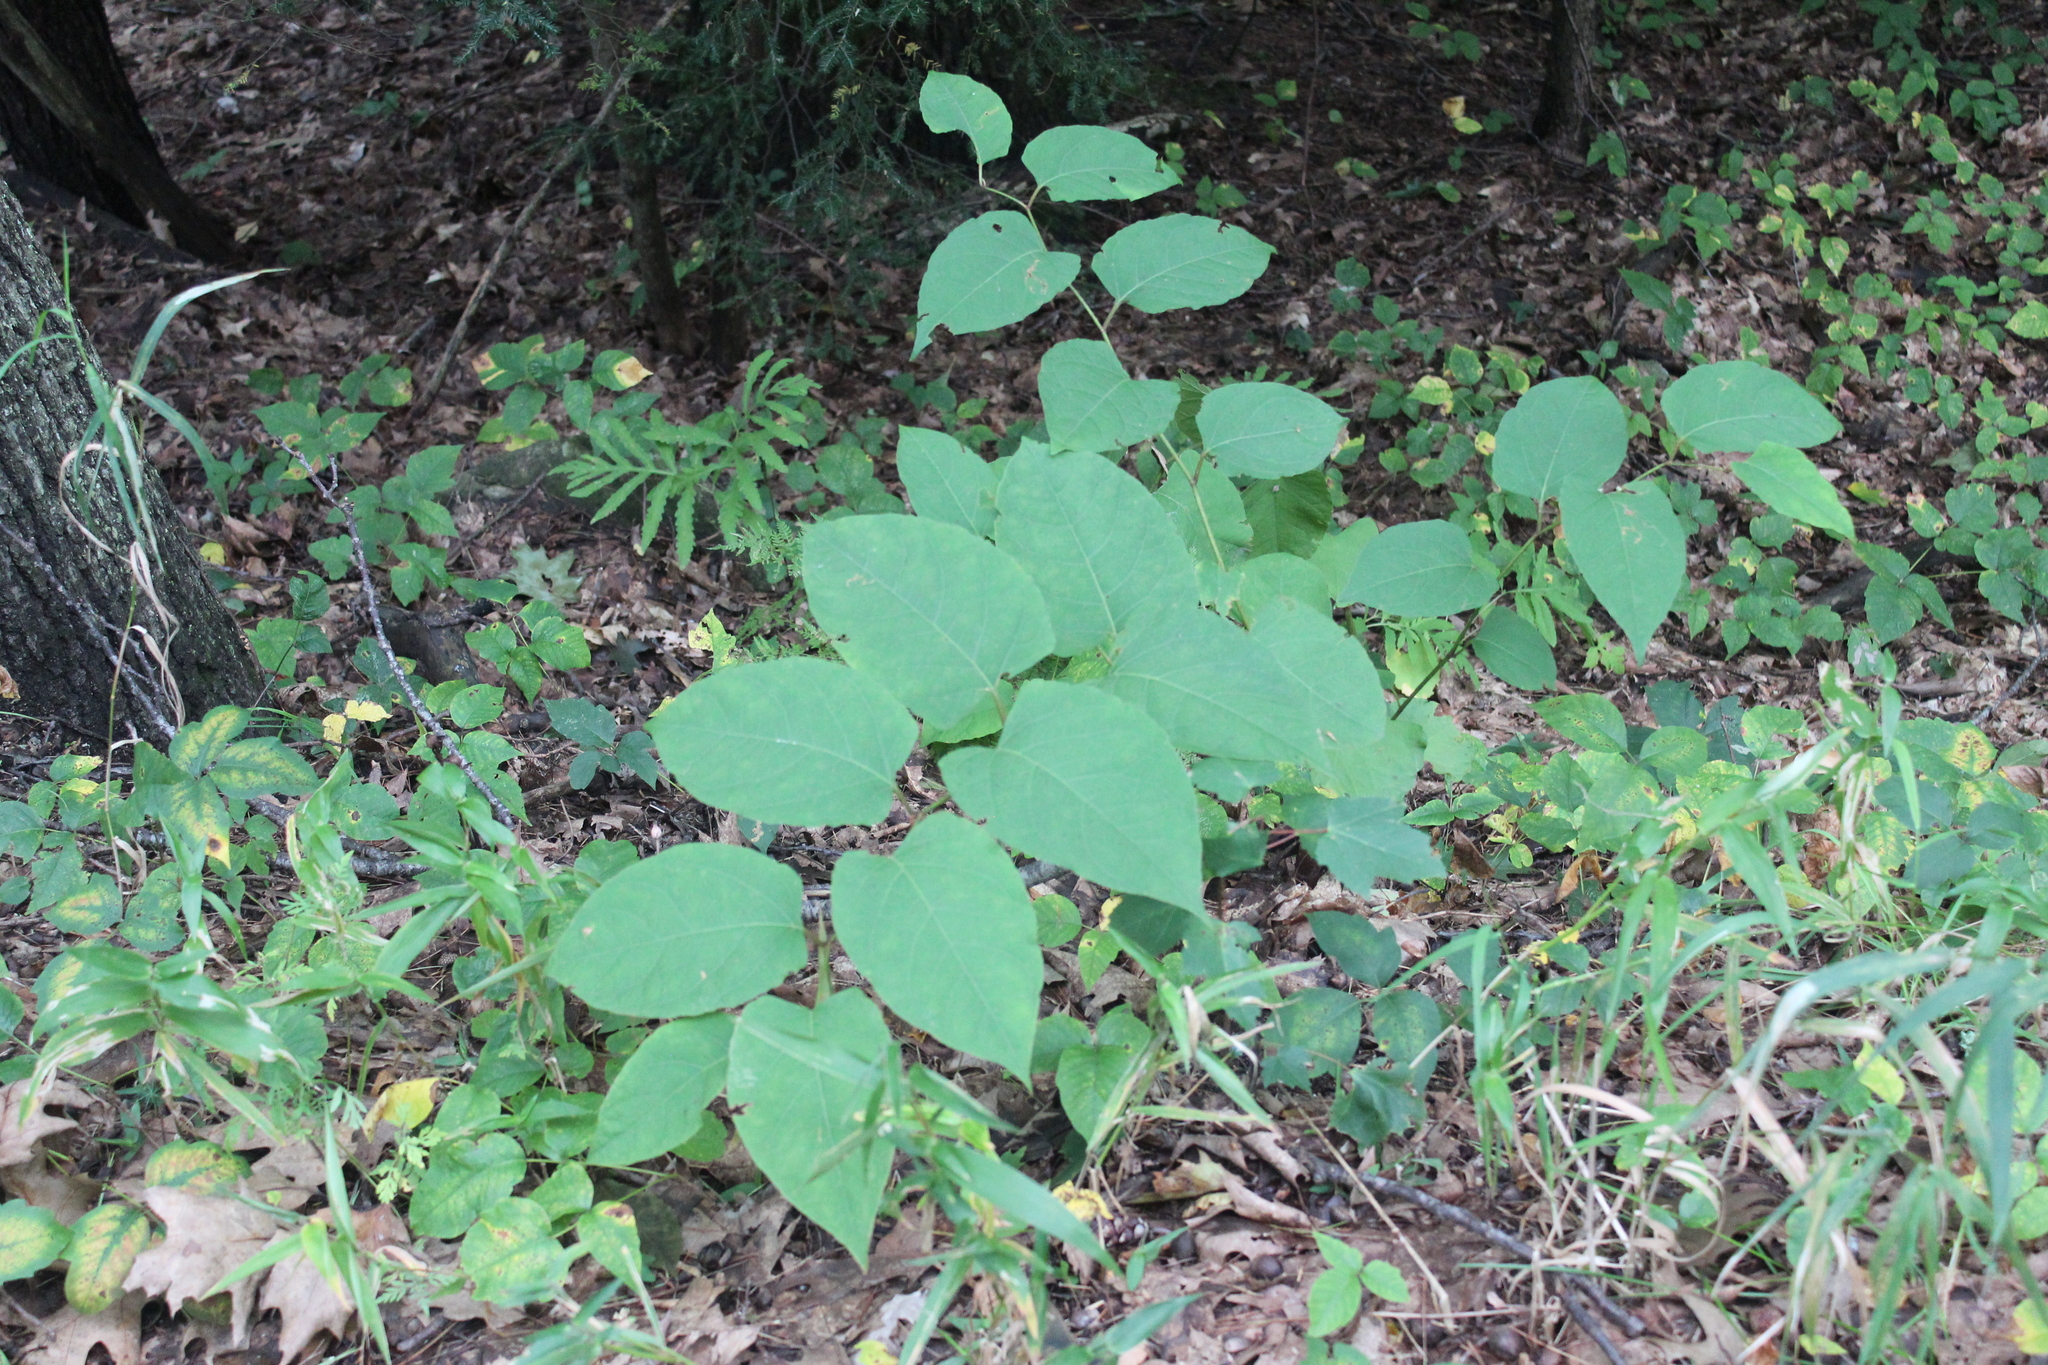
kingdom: Plantae
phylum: Tracheophyta
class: Magnoliopsida
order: Caryophyllales
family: Polygonaceae
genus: Reynoutria
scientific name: Reynoutria japonica
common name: Japanese knotweed
